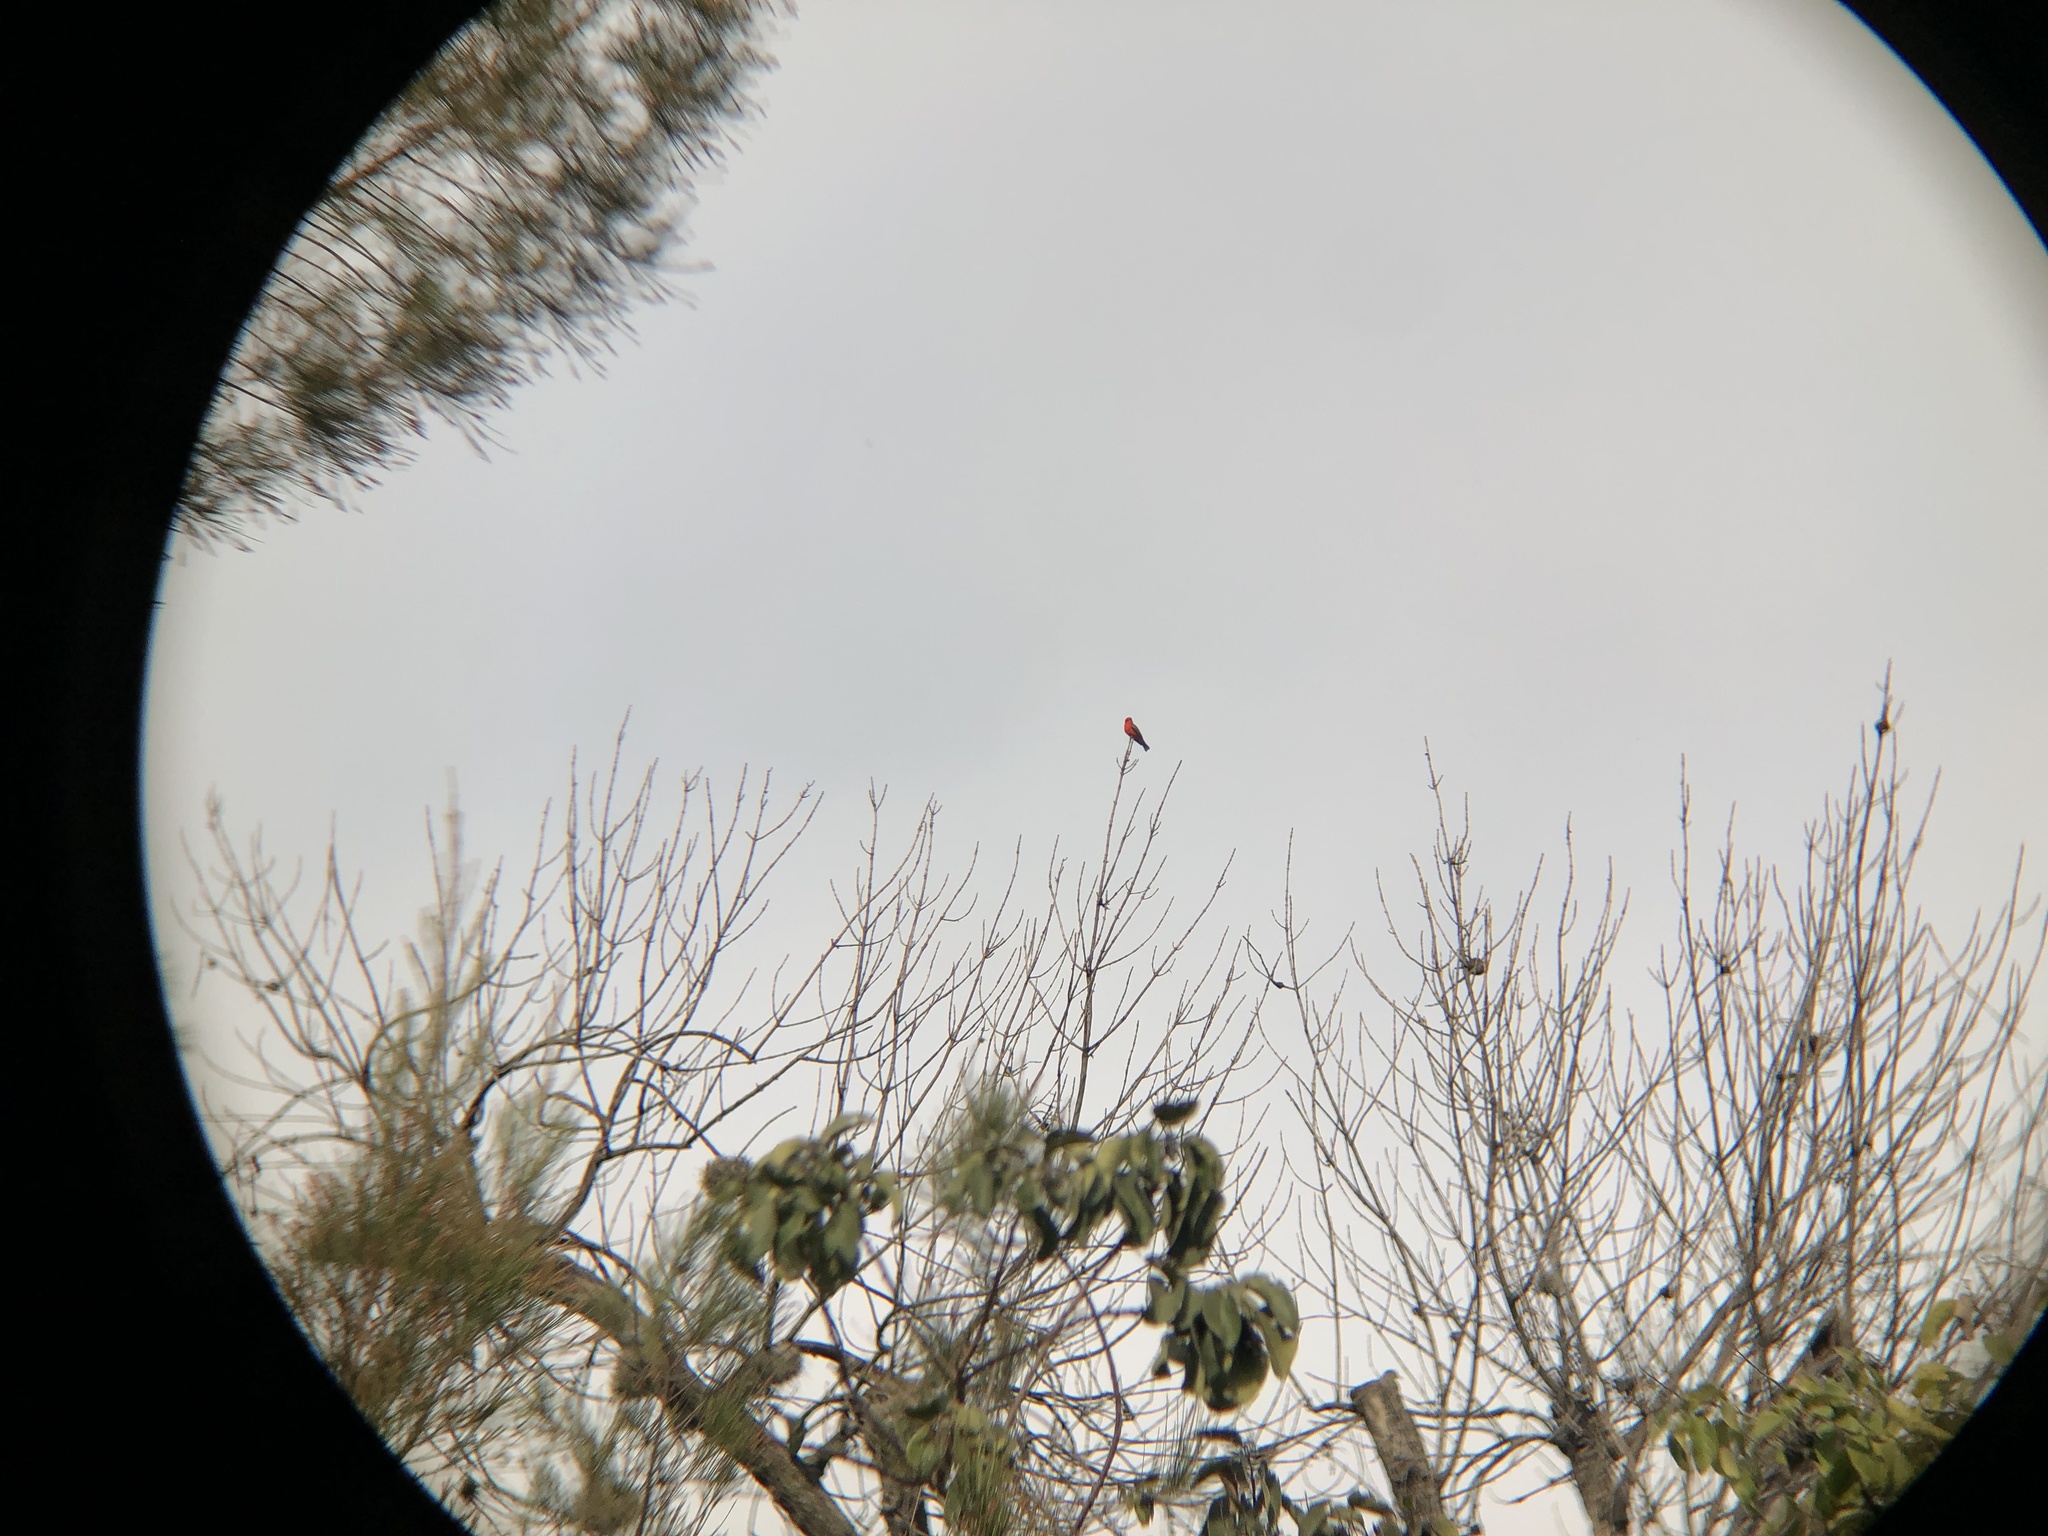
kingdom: Animalia
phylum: Chordata
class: Aves
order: Passeriformes
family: Tyrannidae
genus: Pyrocephalus
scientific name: Pyrocephalus rubinus
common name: Vermilion flycatcher
